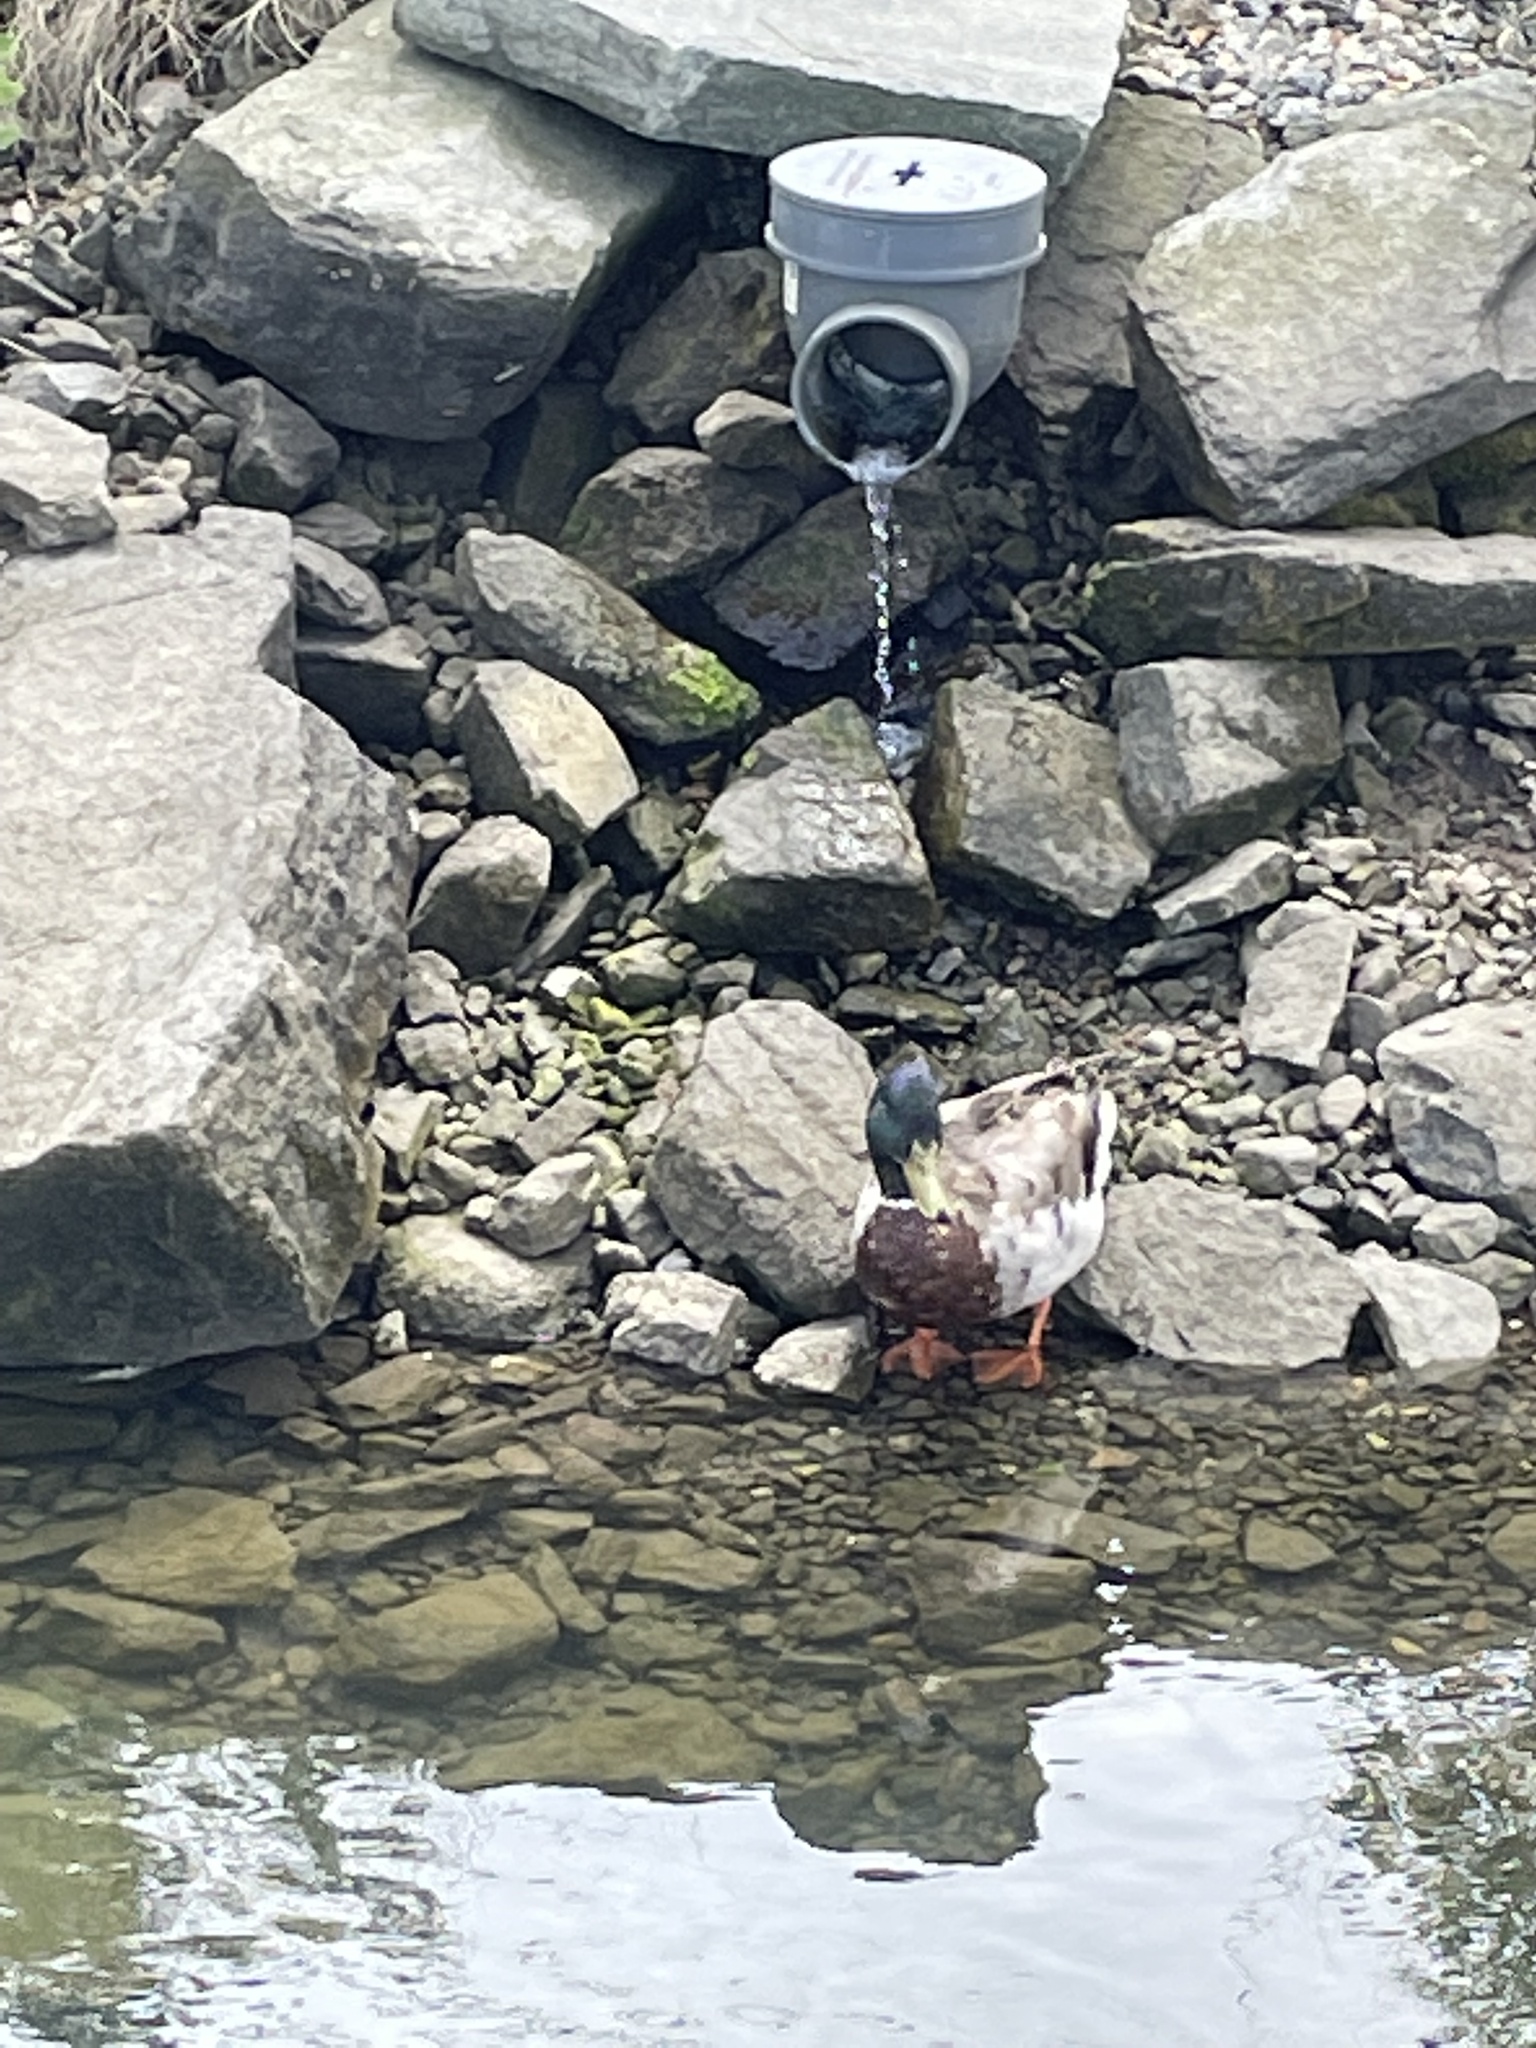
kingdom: Animalia
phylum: Chordata
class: Aves
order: Anseriformes
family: Anatidae
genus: Anas
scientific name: Anas platyrhynchos
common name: Mallard
